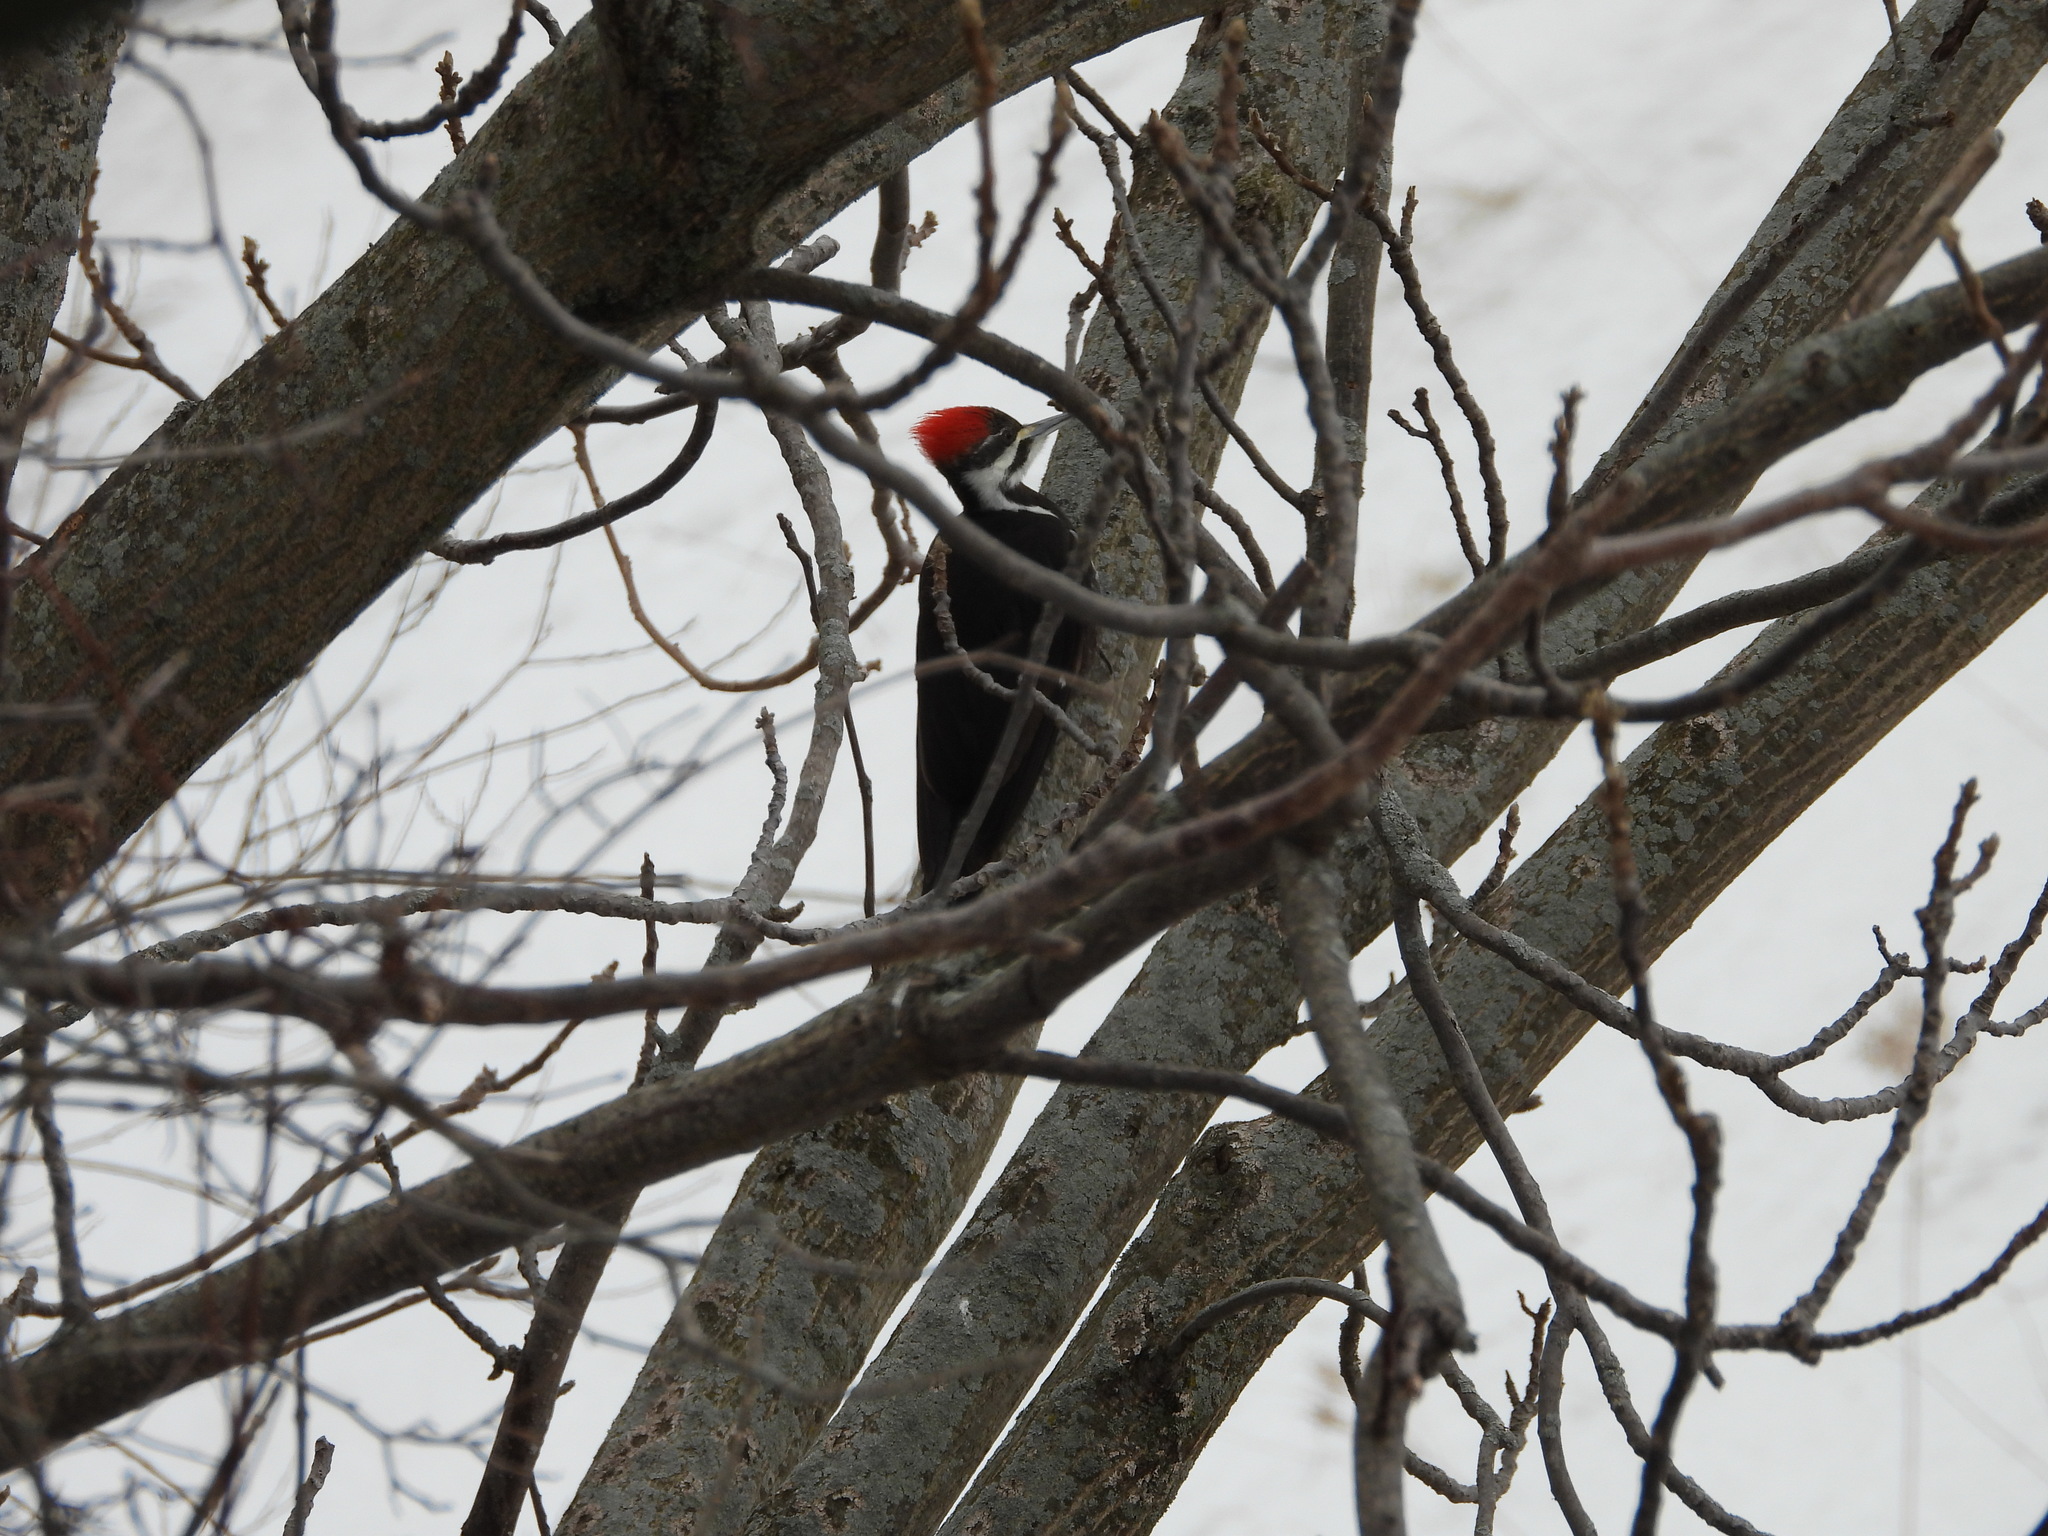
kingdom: Animalia
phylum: Chordata
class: Aves
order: Piciformes
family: Picidae
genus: Dryocopus
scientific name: Dryocopus pileatus
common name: Pileated woodpecker
